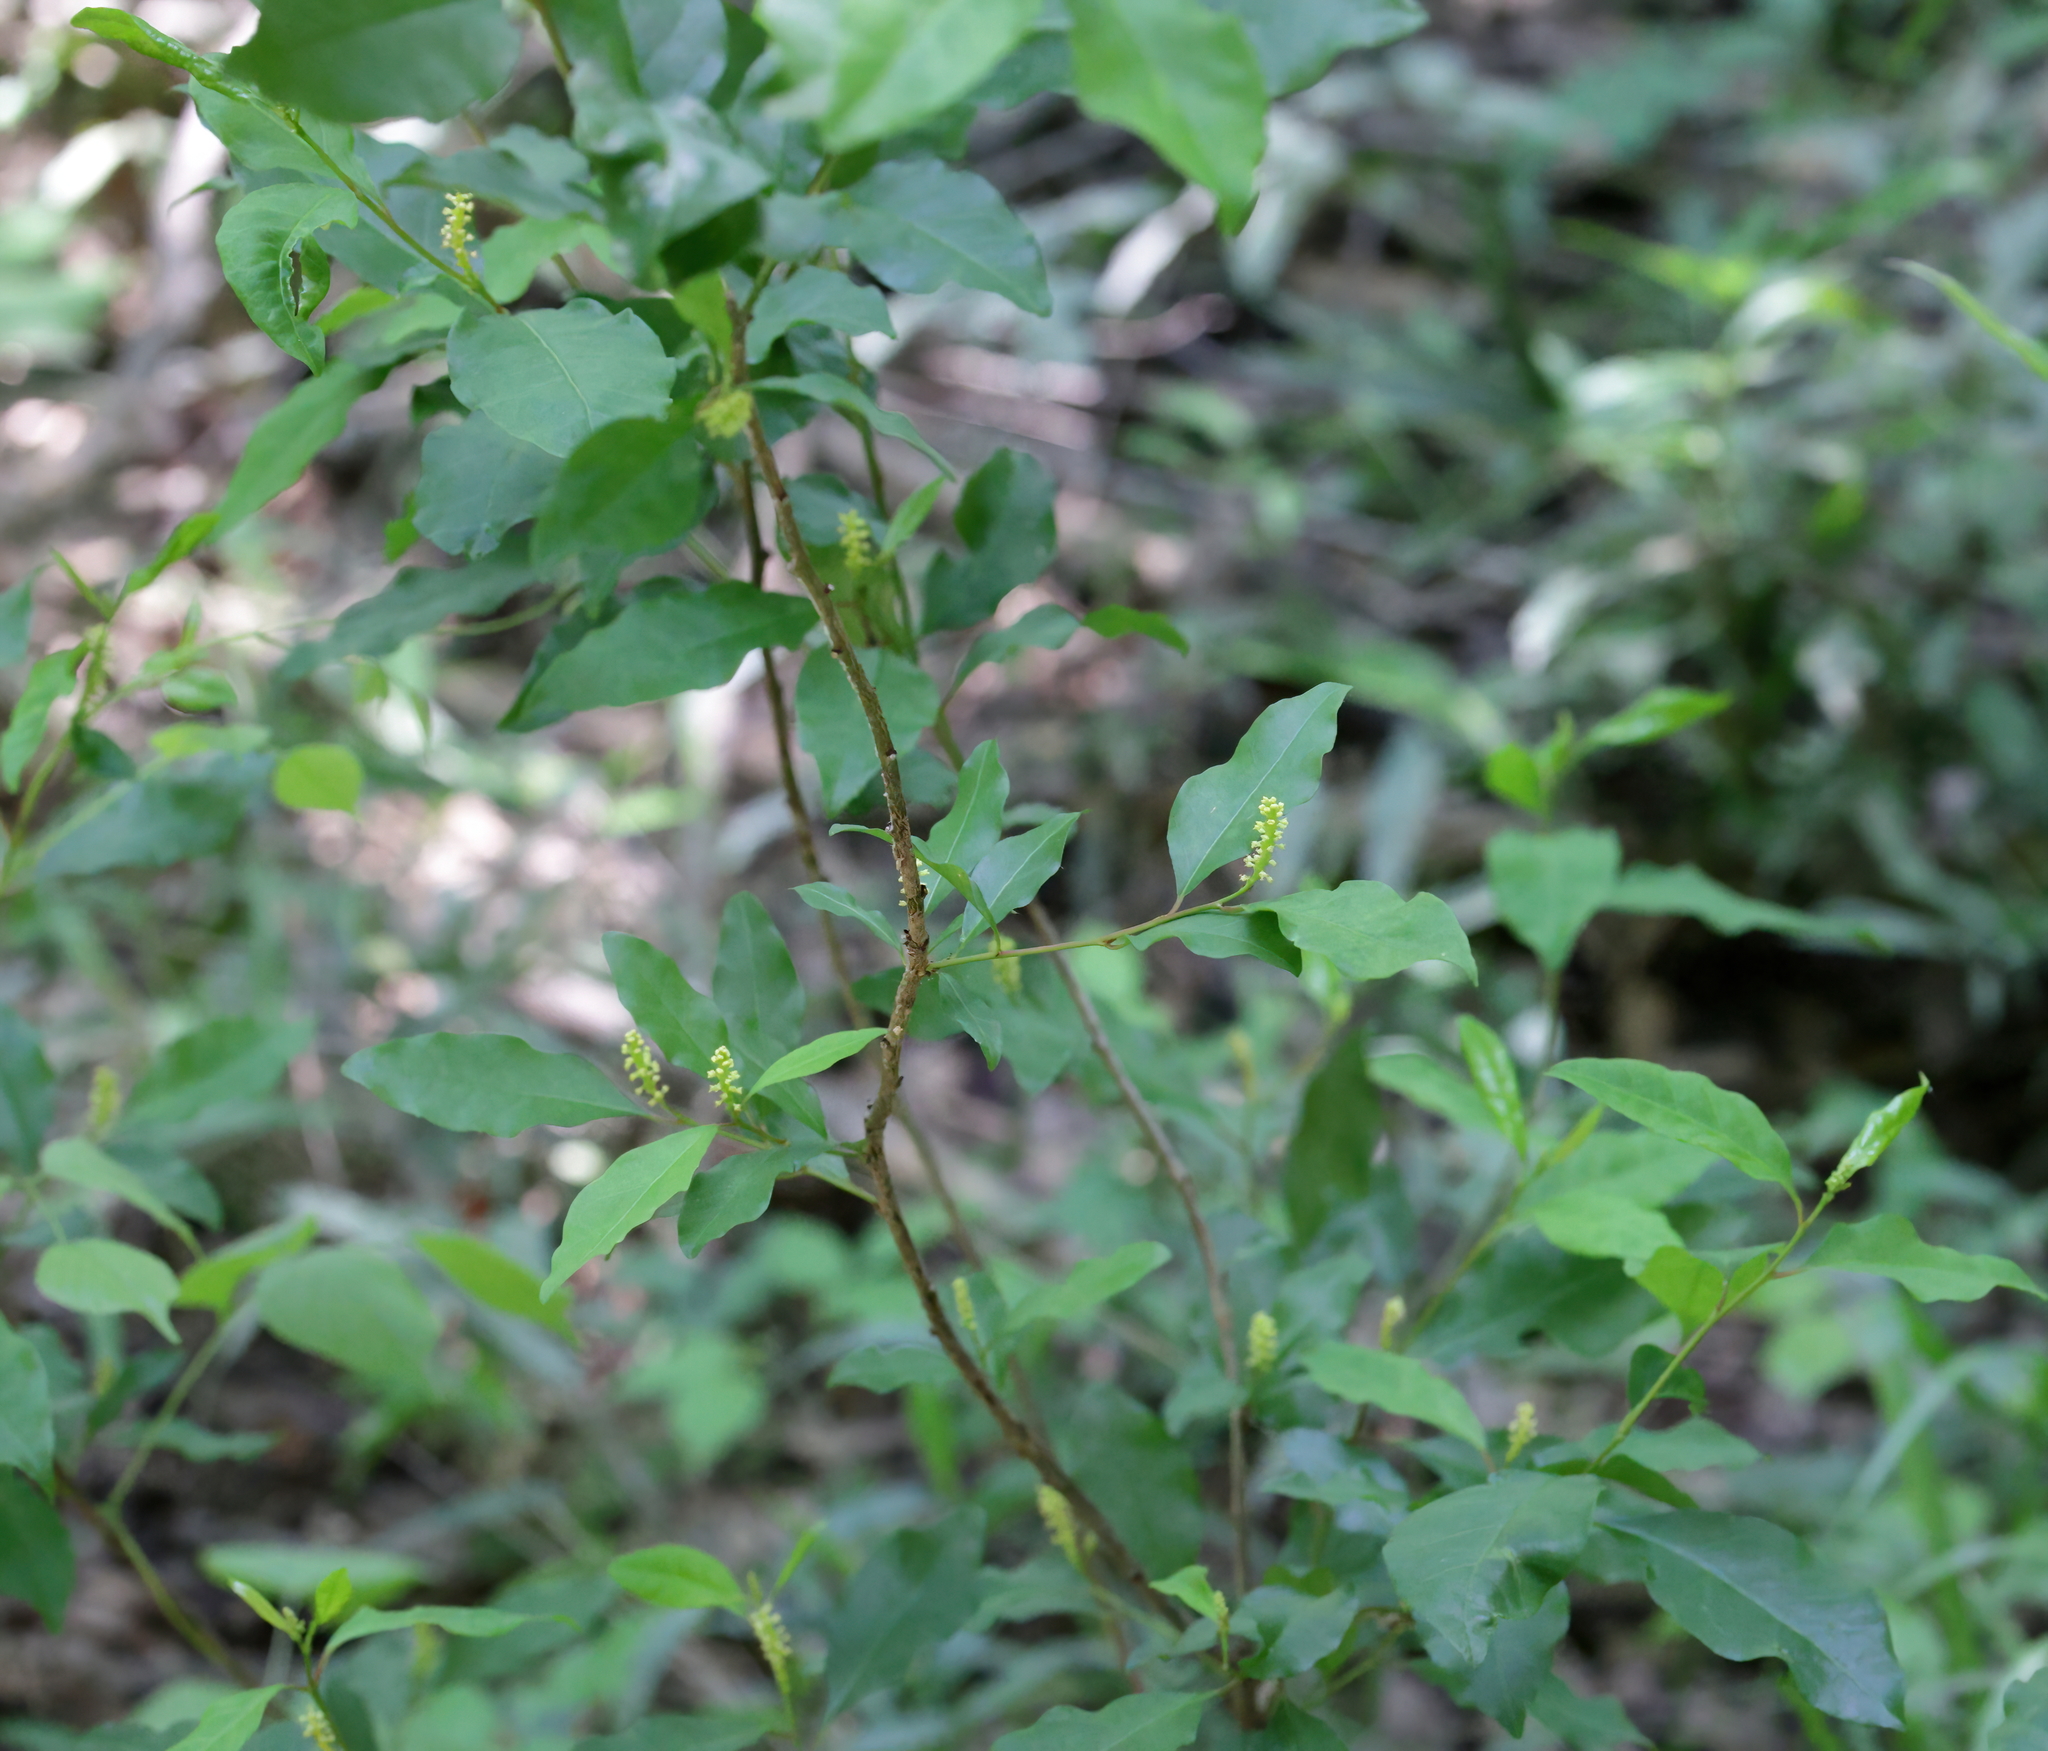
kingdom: Plantae
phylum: Tracheophyta
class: Magnoliopsida
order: Malpighiales
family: Euphorbiaceae
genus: Ditrysinia
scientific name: Ditrysinia fruticosa
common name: Gulf sebastian-bush
